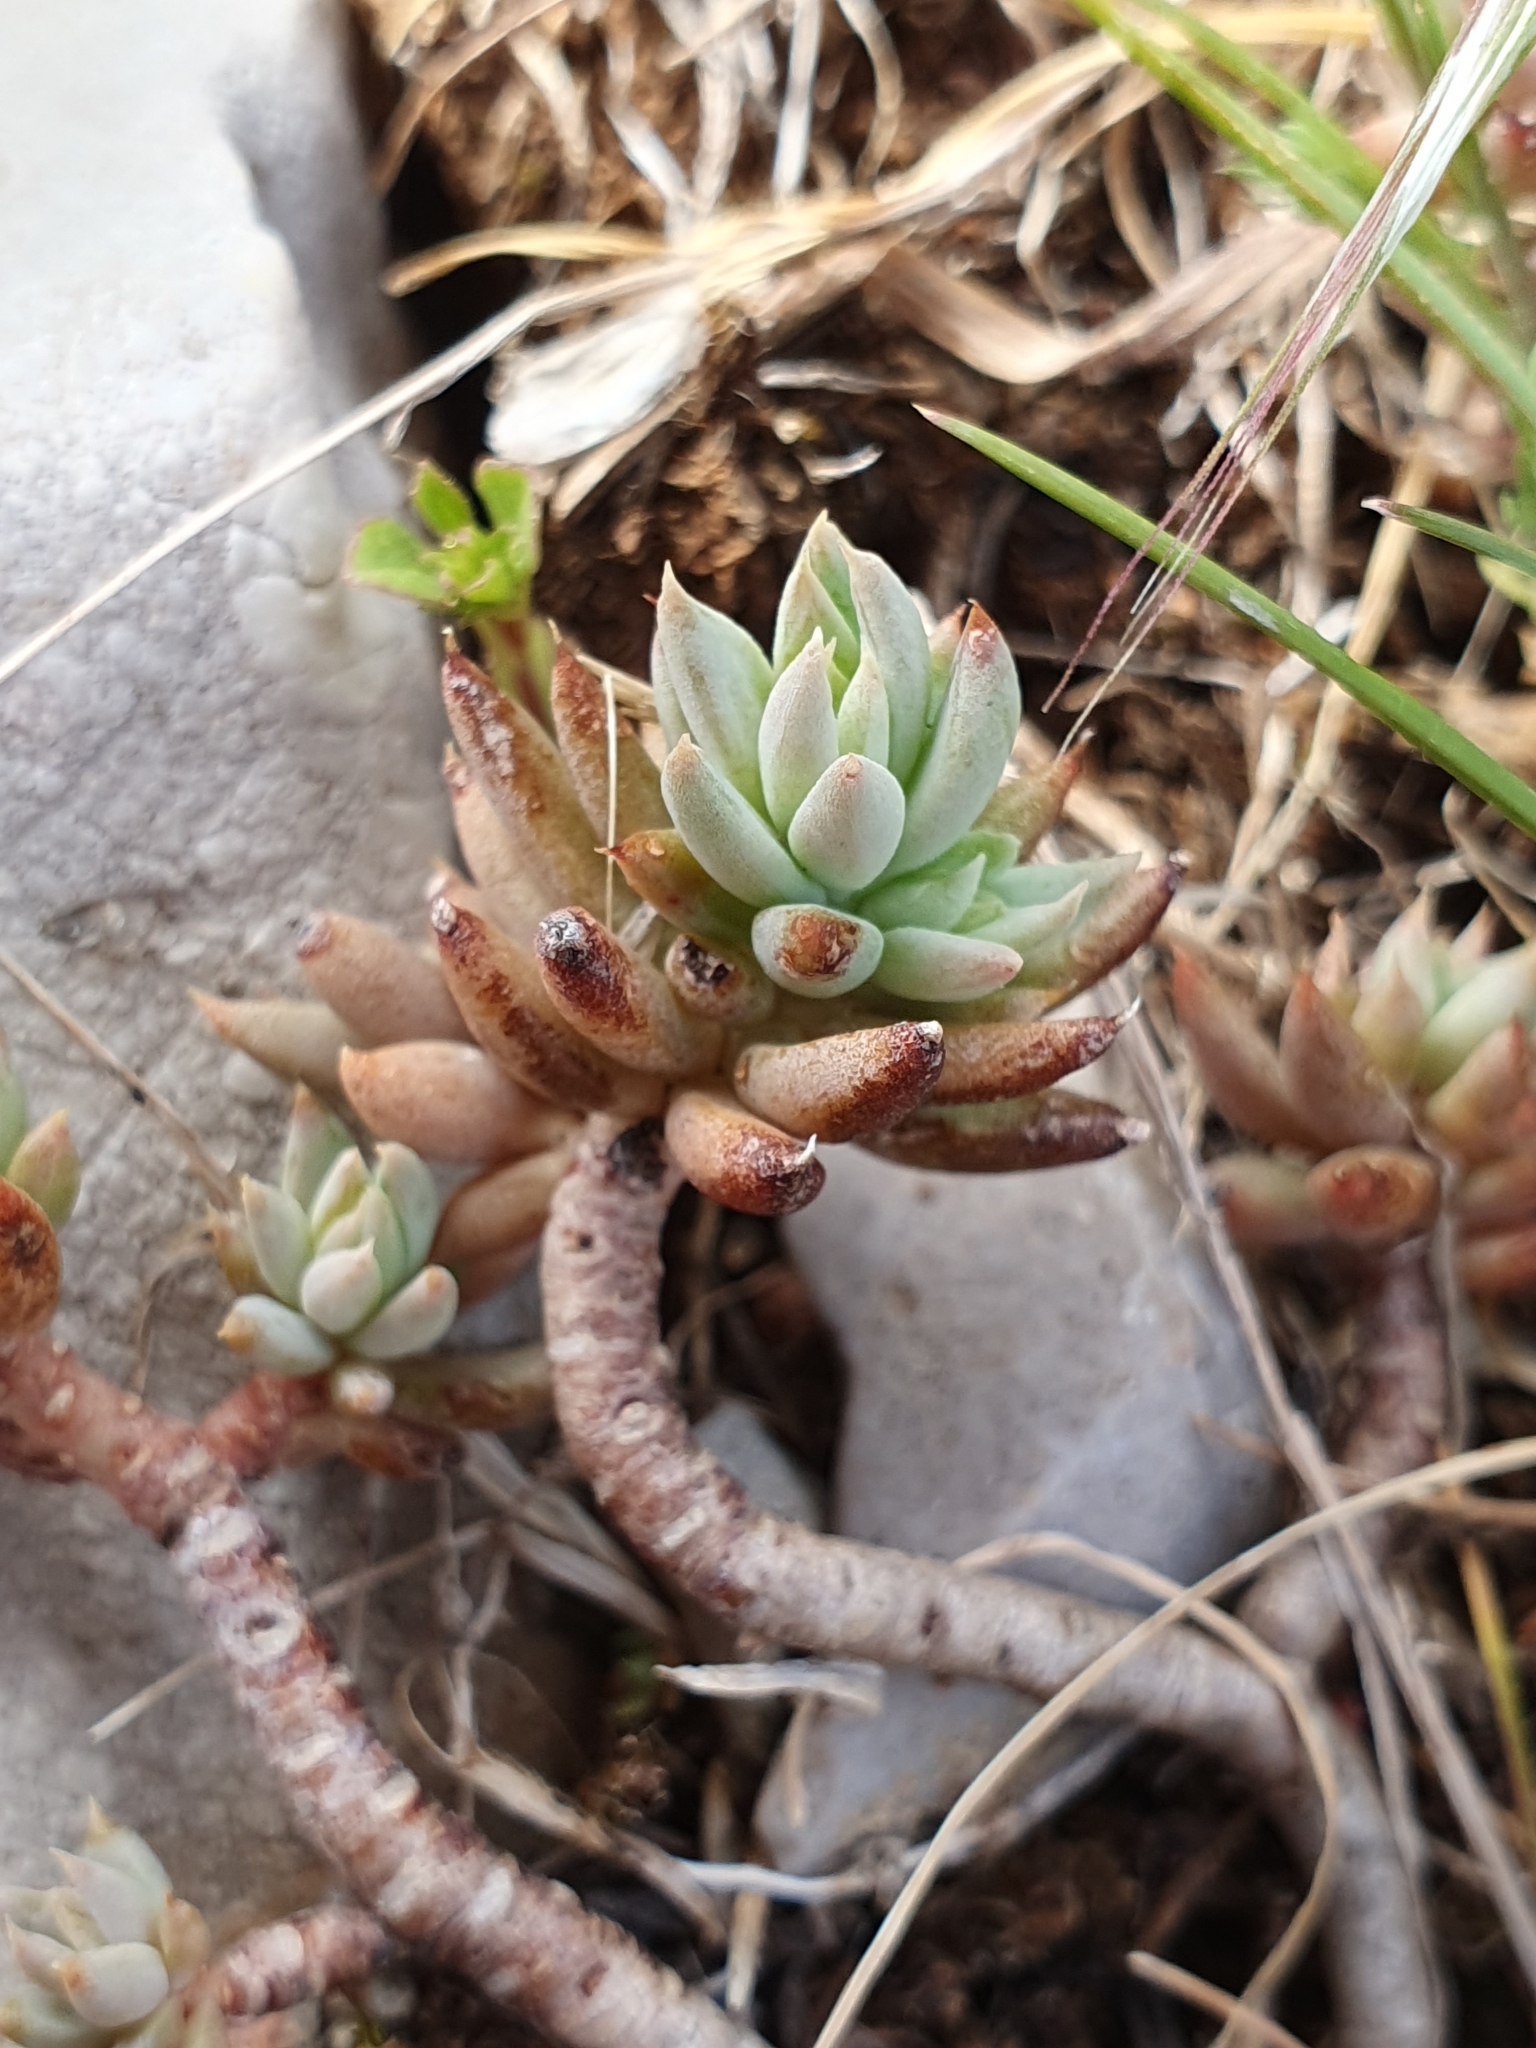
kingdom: Plantae
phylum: Tracheophyta
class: Magnoliopsida
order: Saxifragales
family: Crassulaceae
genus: Petrosedum
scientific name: Petrosedum sediforme
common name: Pale stonecrop
